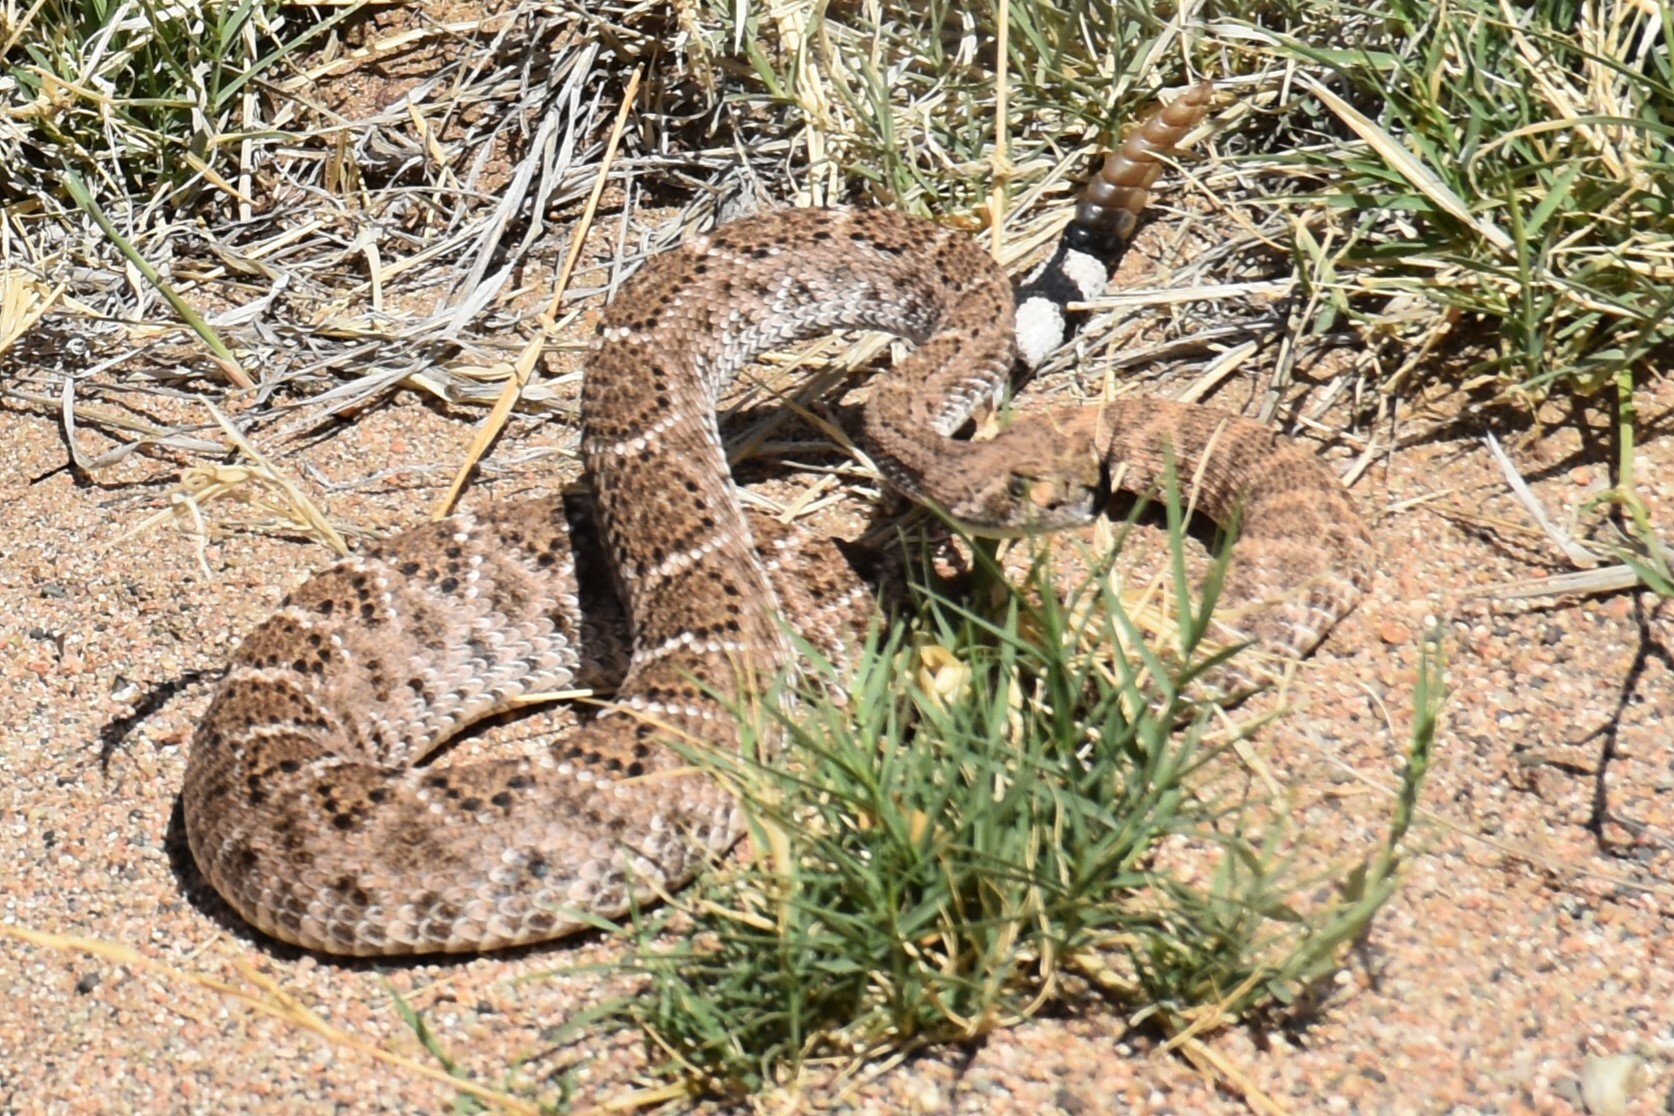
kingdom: Animalia
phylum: Chordata
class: Squamata
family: Viperidae
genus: Crotalus
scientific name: Crotalus atrox
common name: Western diamond-backed rattlesnake
